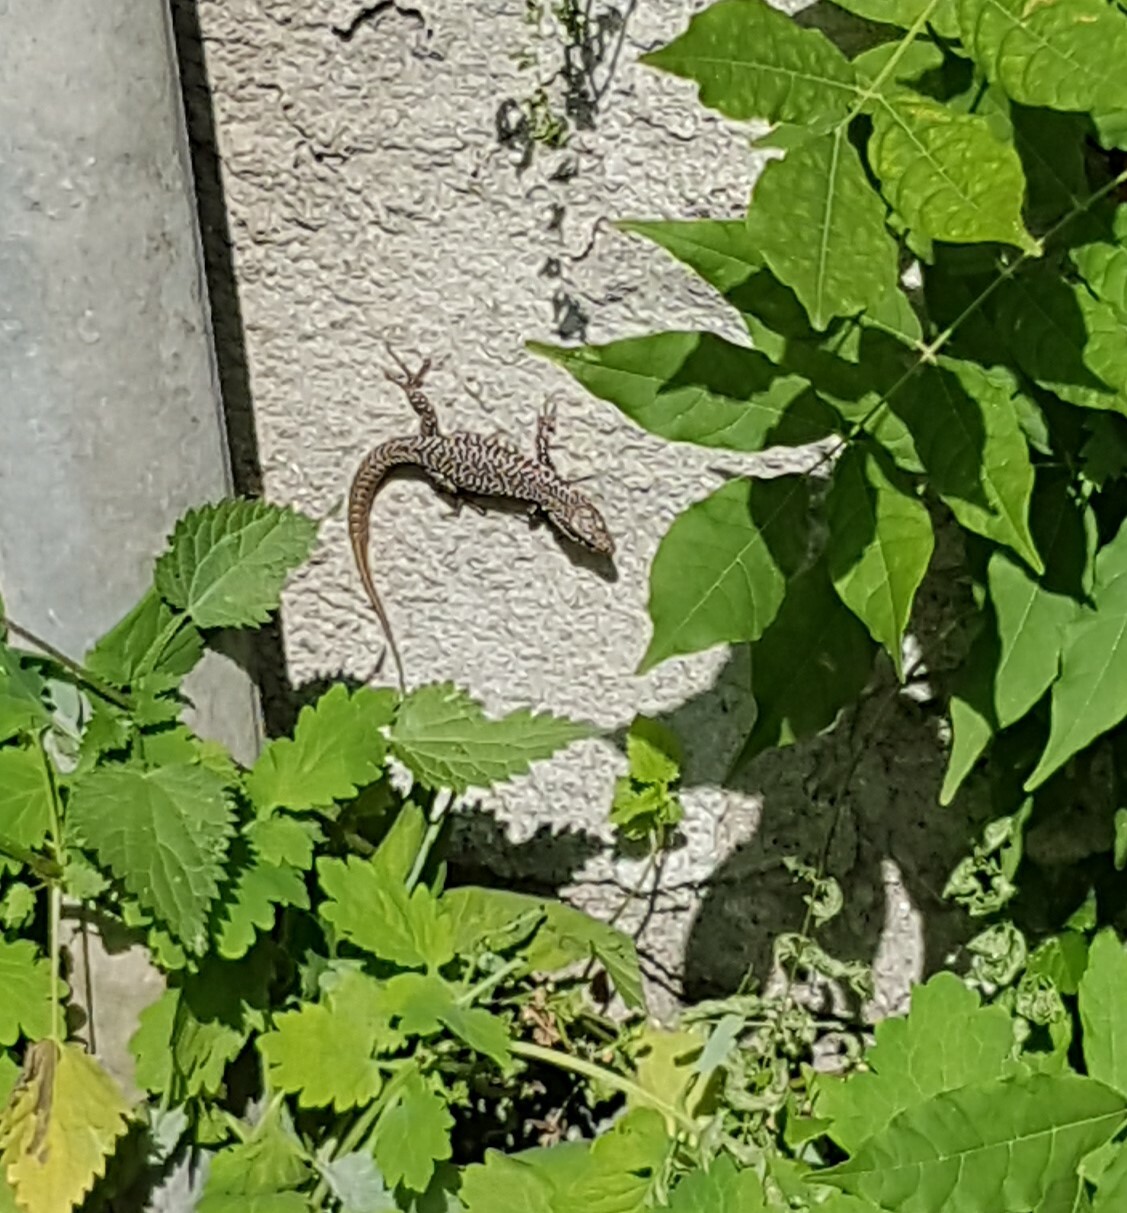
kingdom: Animalia
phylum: Chordata
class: Squamata
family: Lacertidae
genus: Podarcis
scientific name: Podarcis muralis
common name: Common wall lizard
